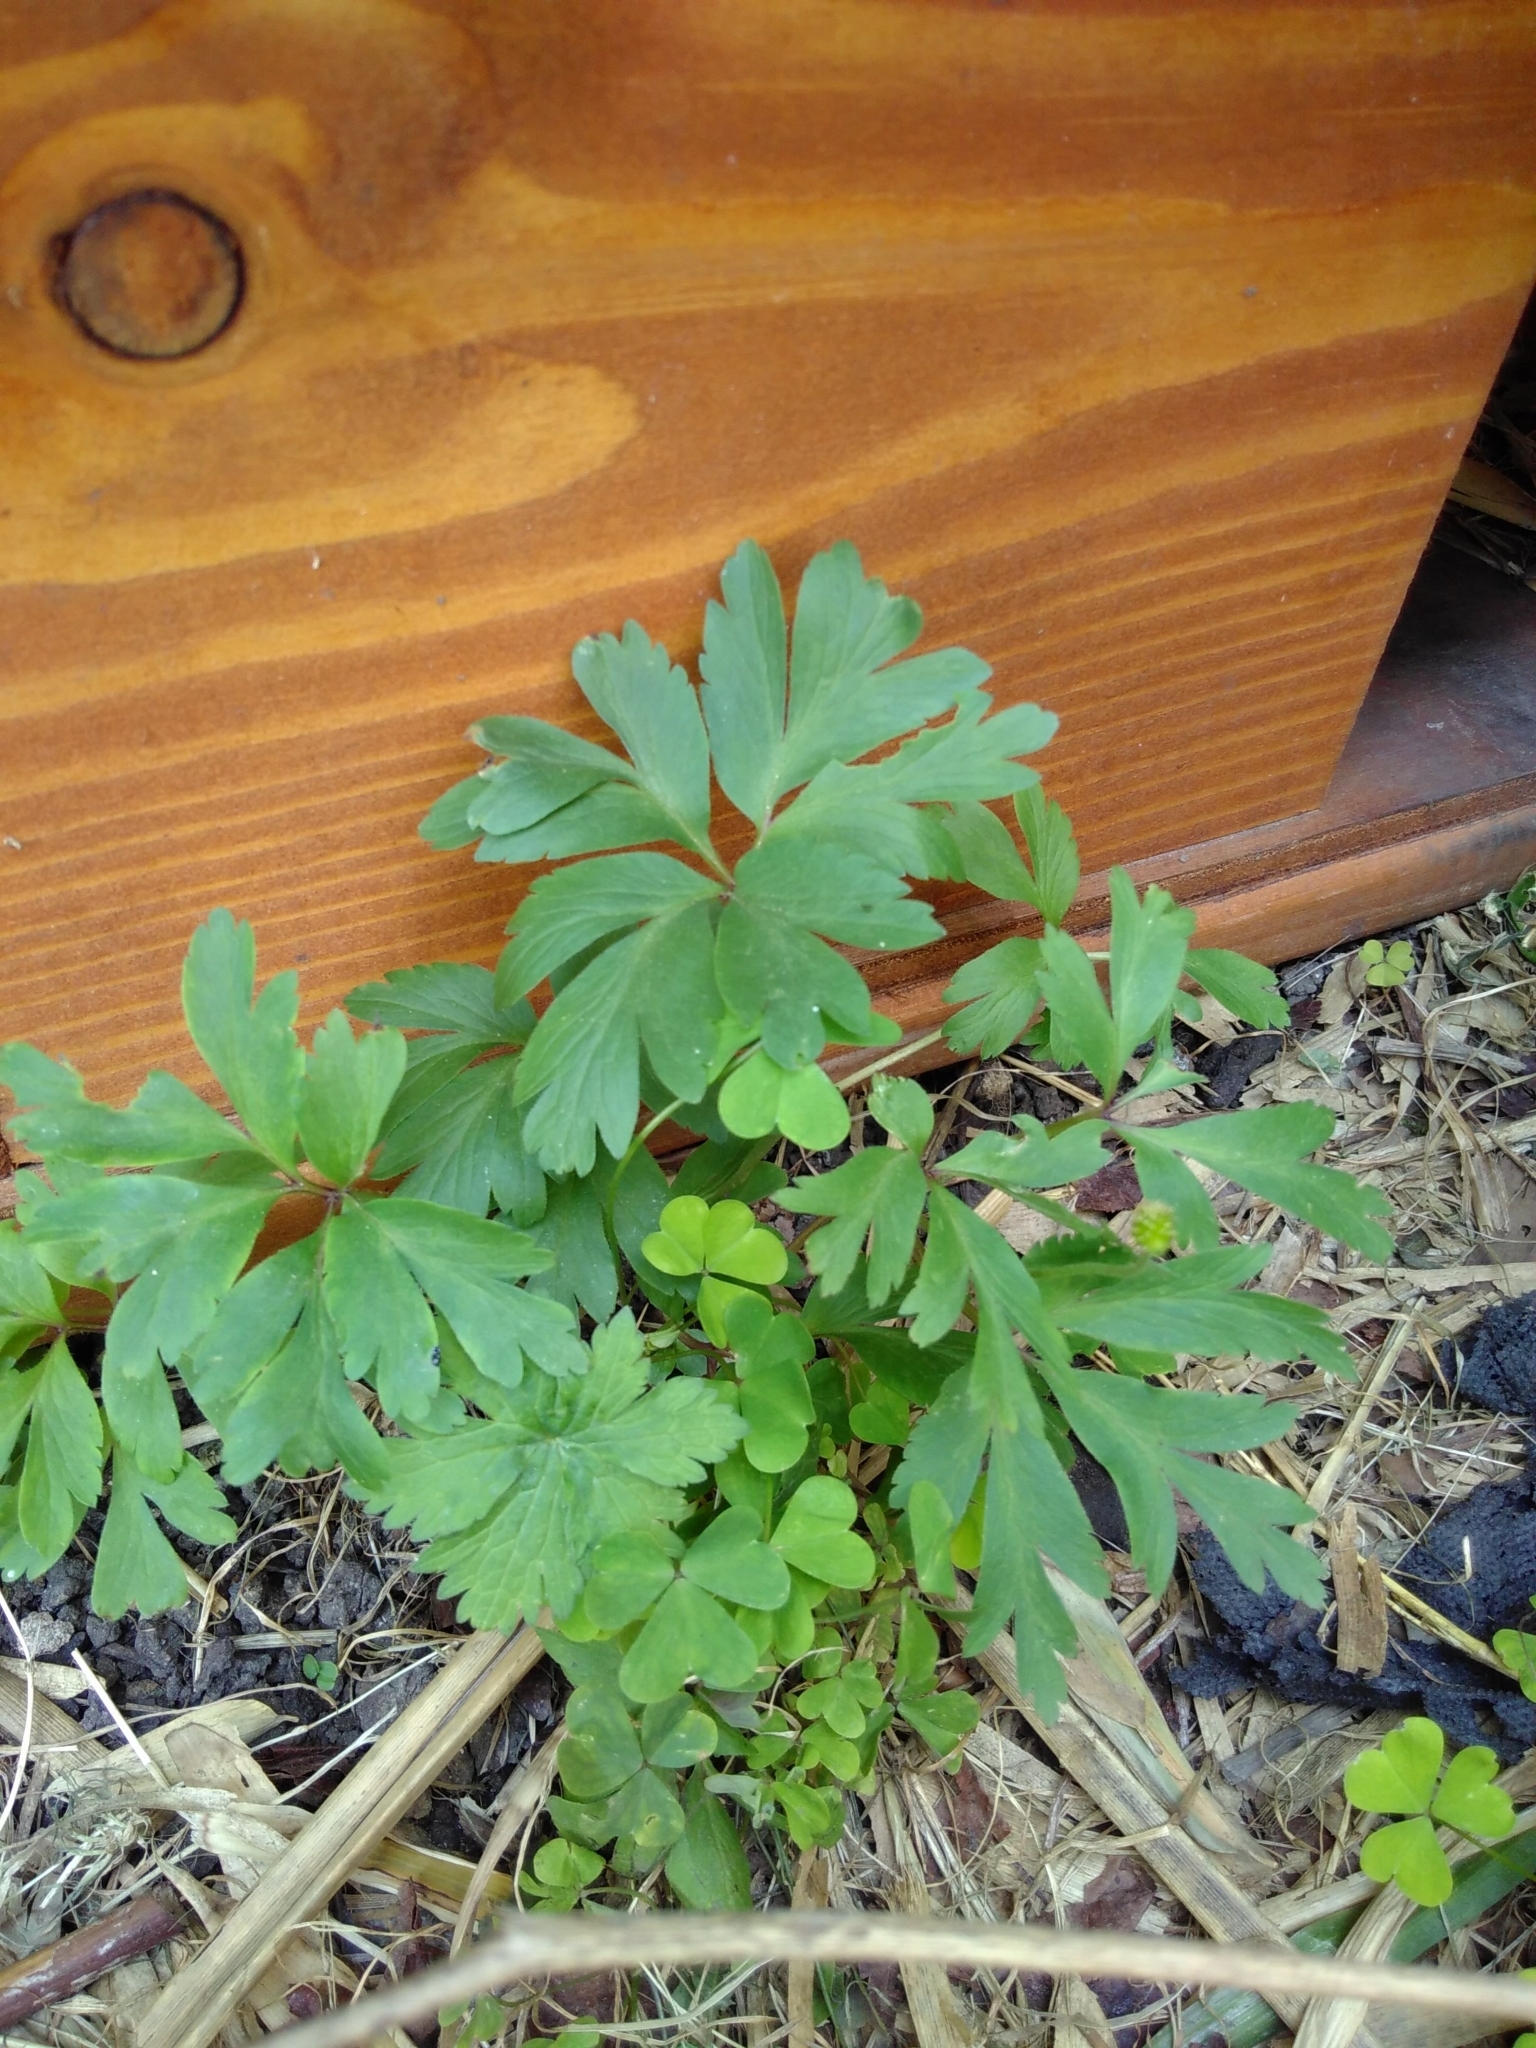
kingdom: Plantae
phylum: Tracheophyta
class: Magnoliopsida
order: Ranunculales
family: Ranunculaceae
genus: Anemone
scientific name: Anemone nemorosa
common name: Wood anemone
